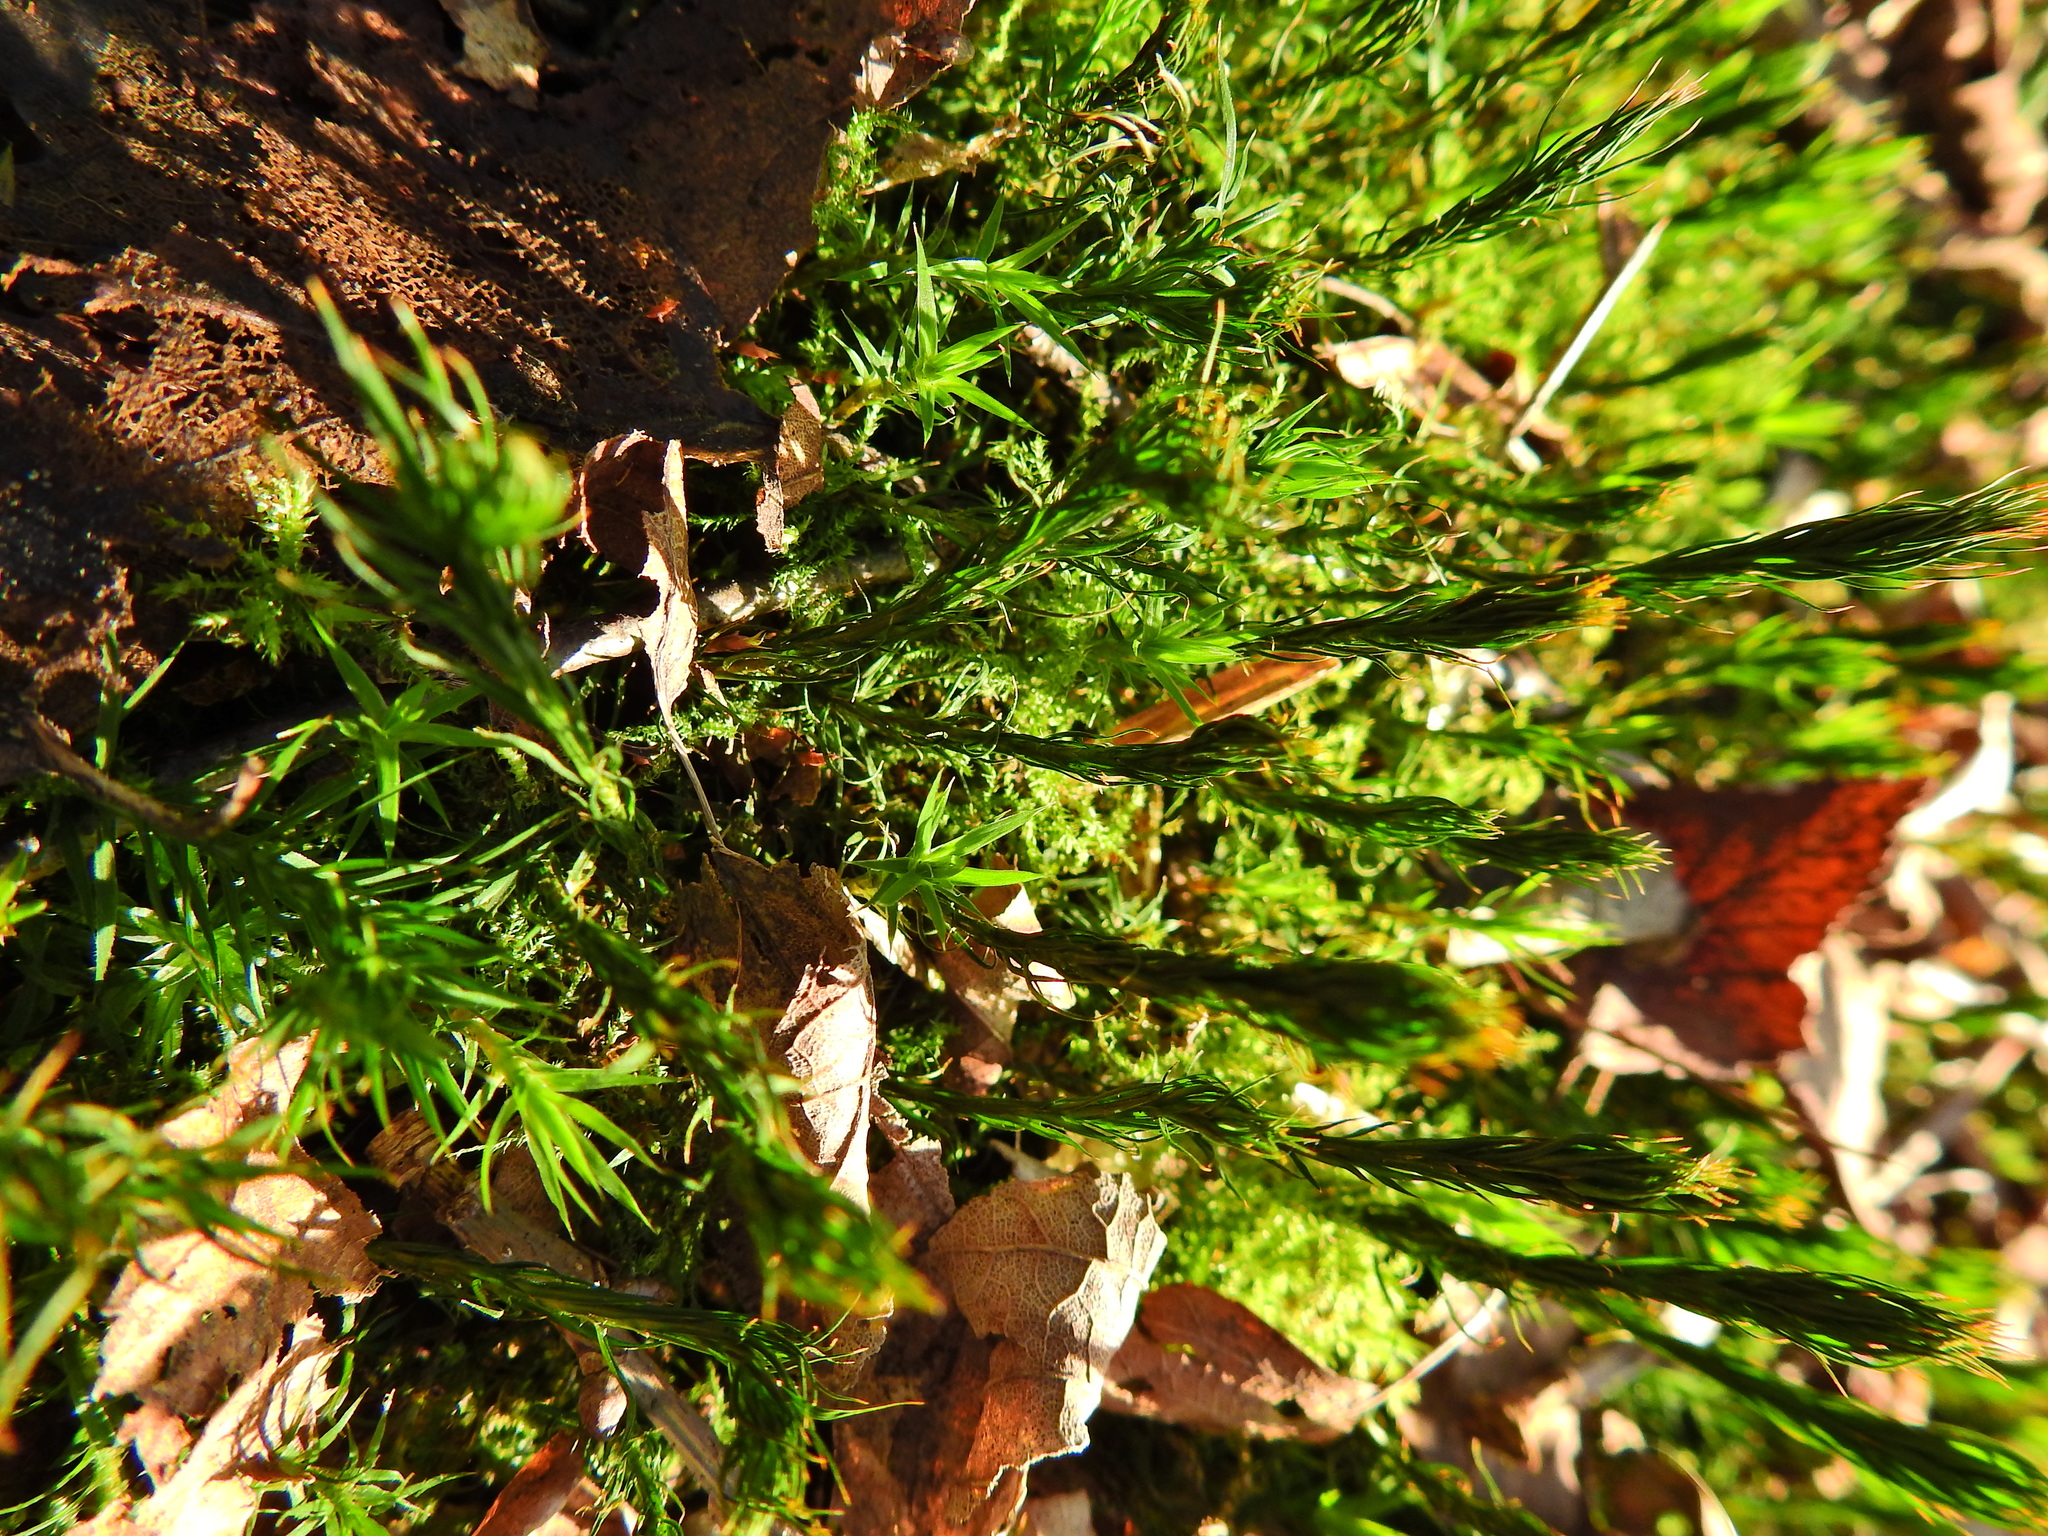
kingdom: Plantae
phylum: Bryophyta
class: Polytrichopsida
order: Polytrichales
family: Polytrichaceae
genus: Polytrichum
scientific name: Polytrichum formosum
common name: Bank haircap moss
